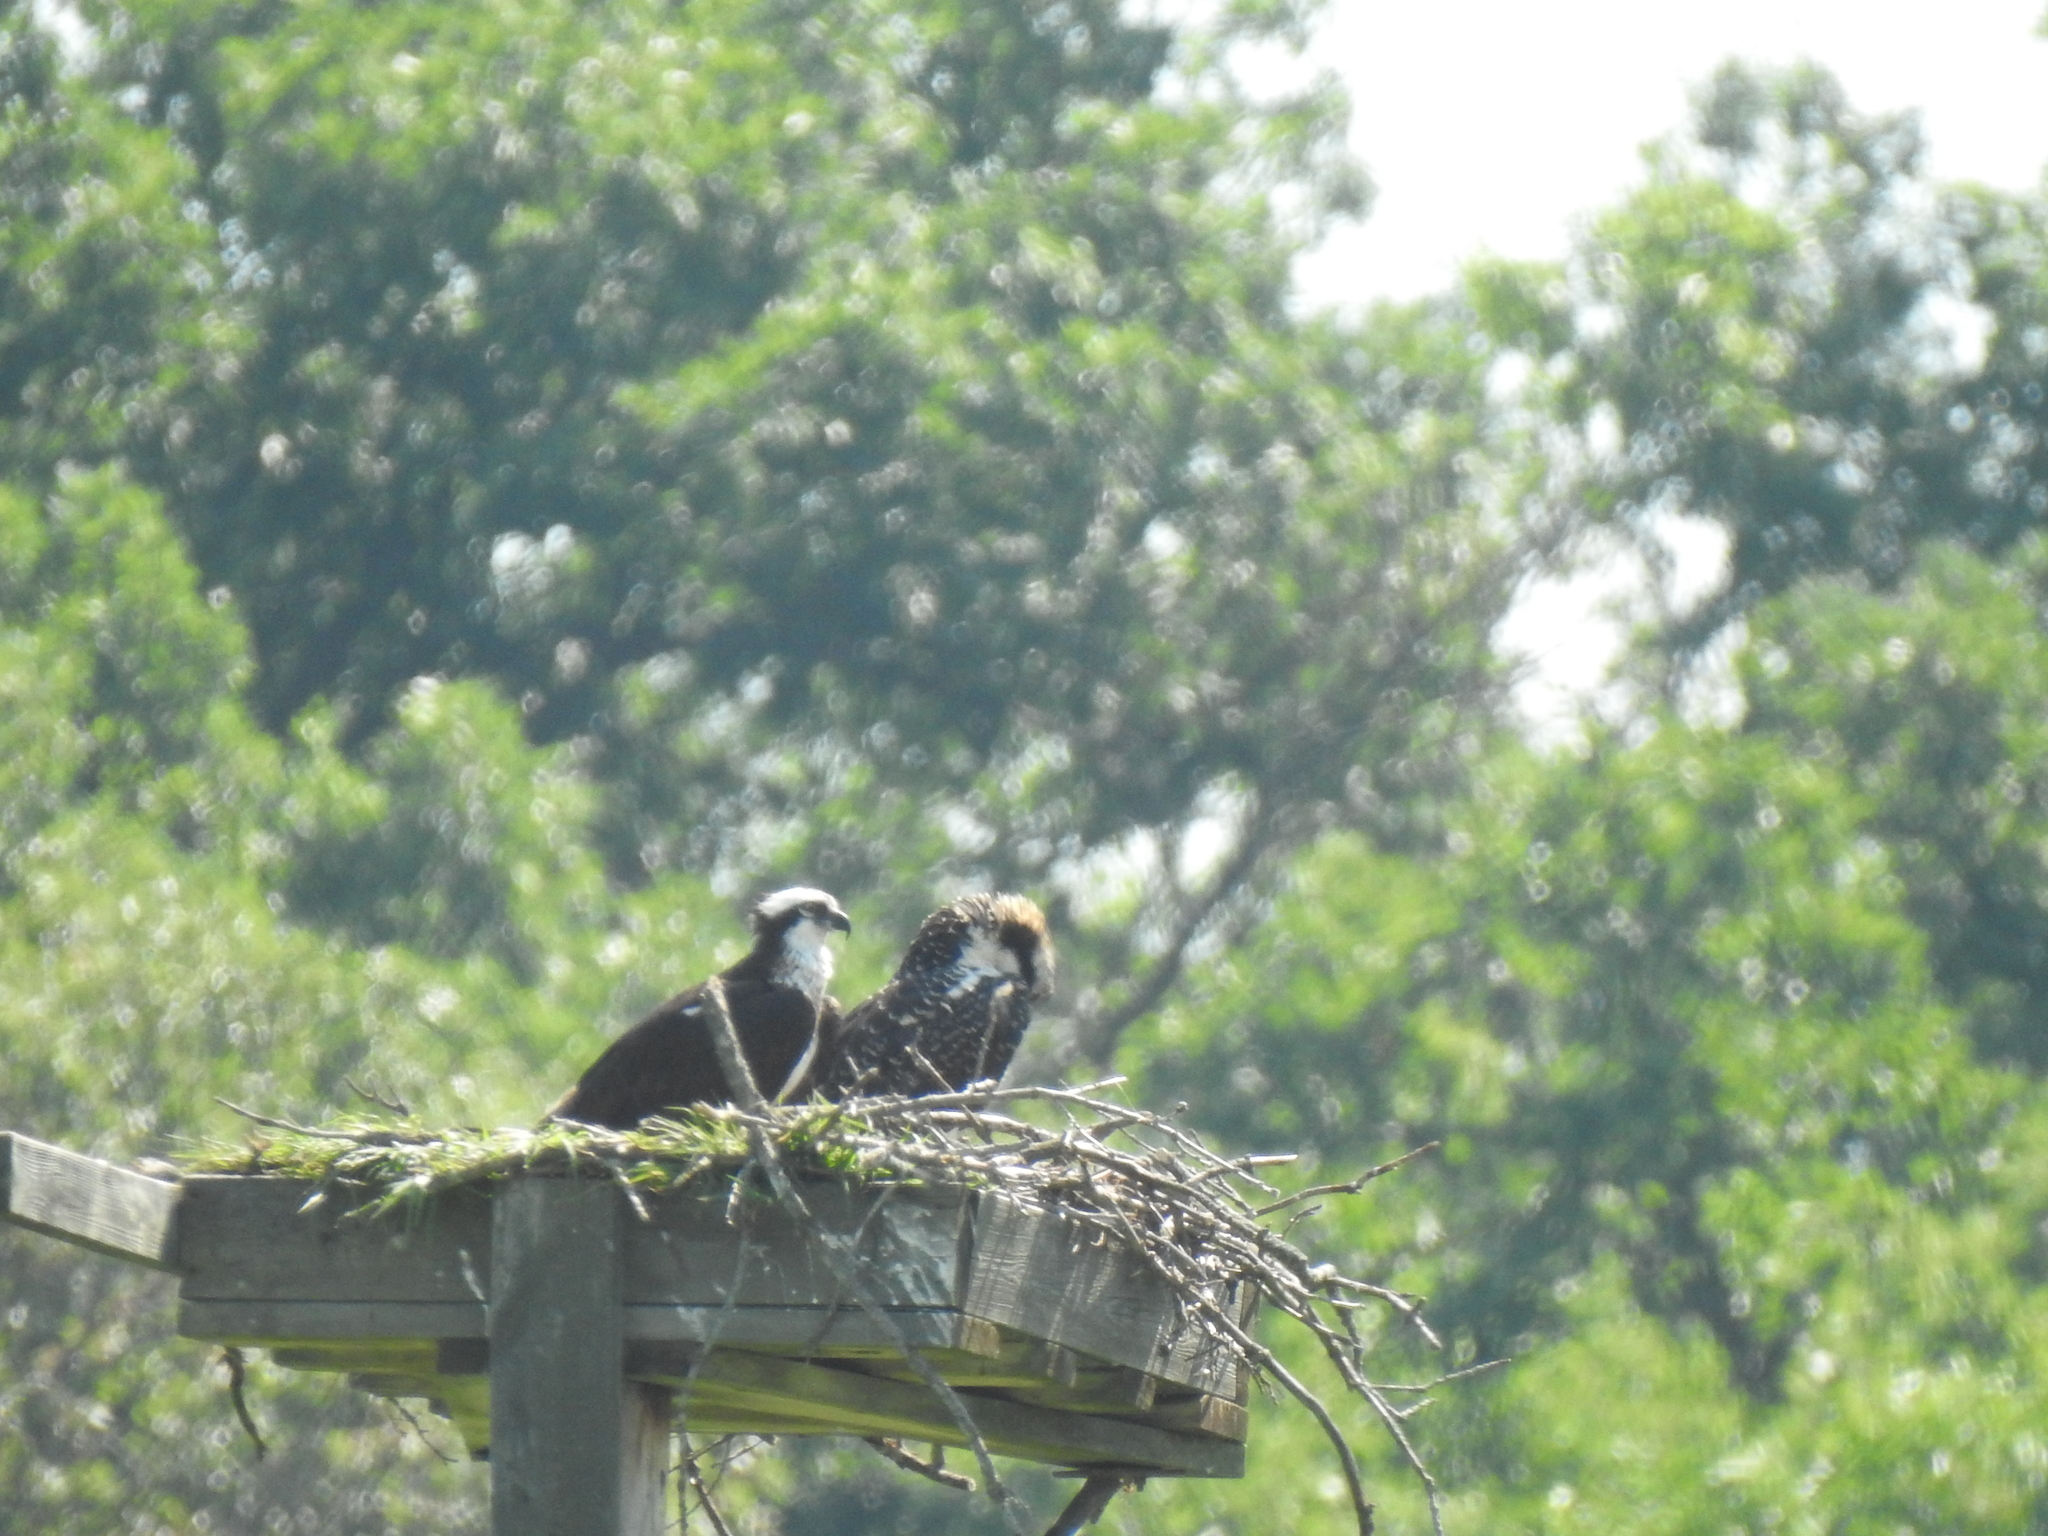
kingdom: Animalia
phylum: Chordata
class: Aves
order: Accipitriformes
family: Pandionidae
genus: Pandion
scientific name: Pandion haliaetus
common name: Osprey
